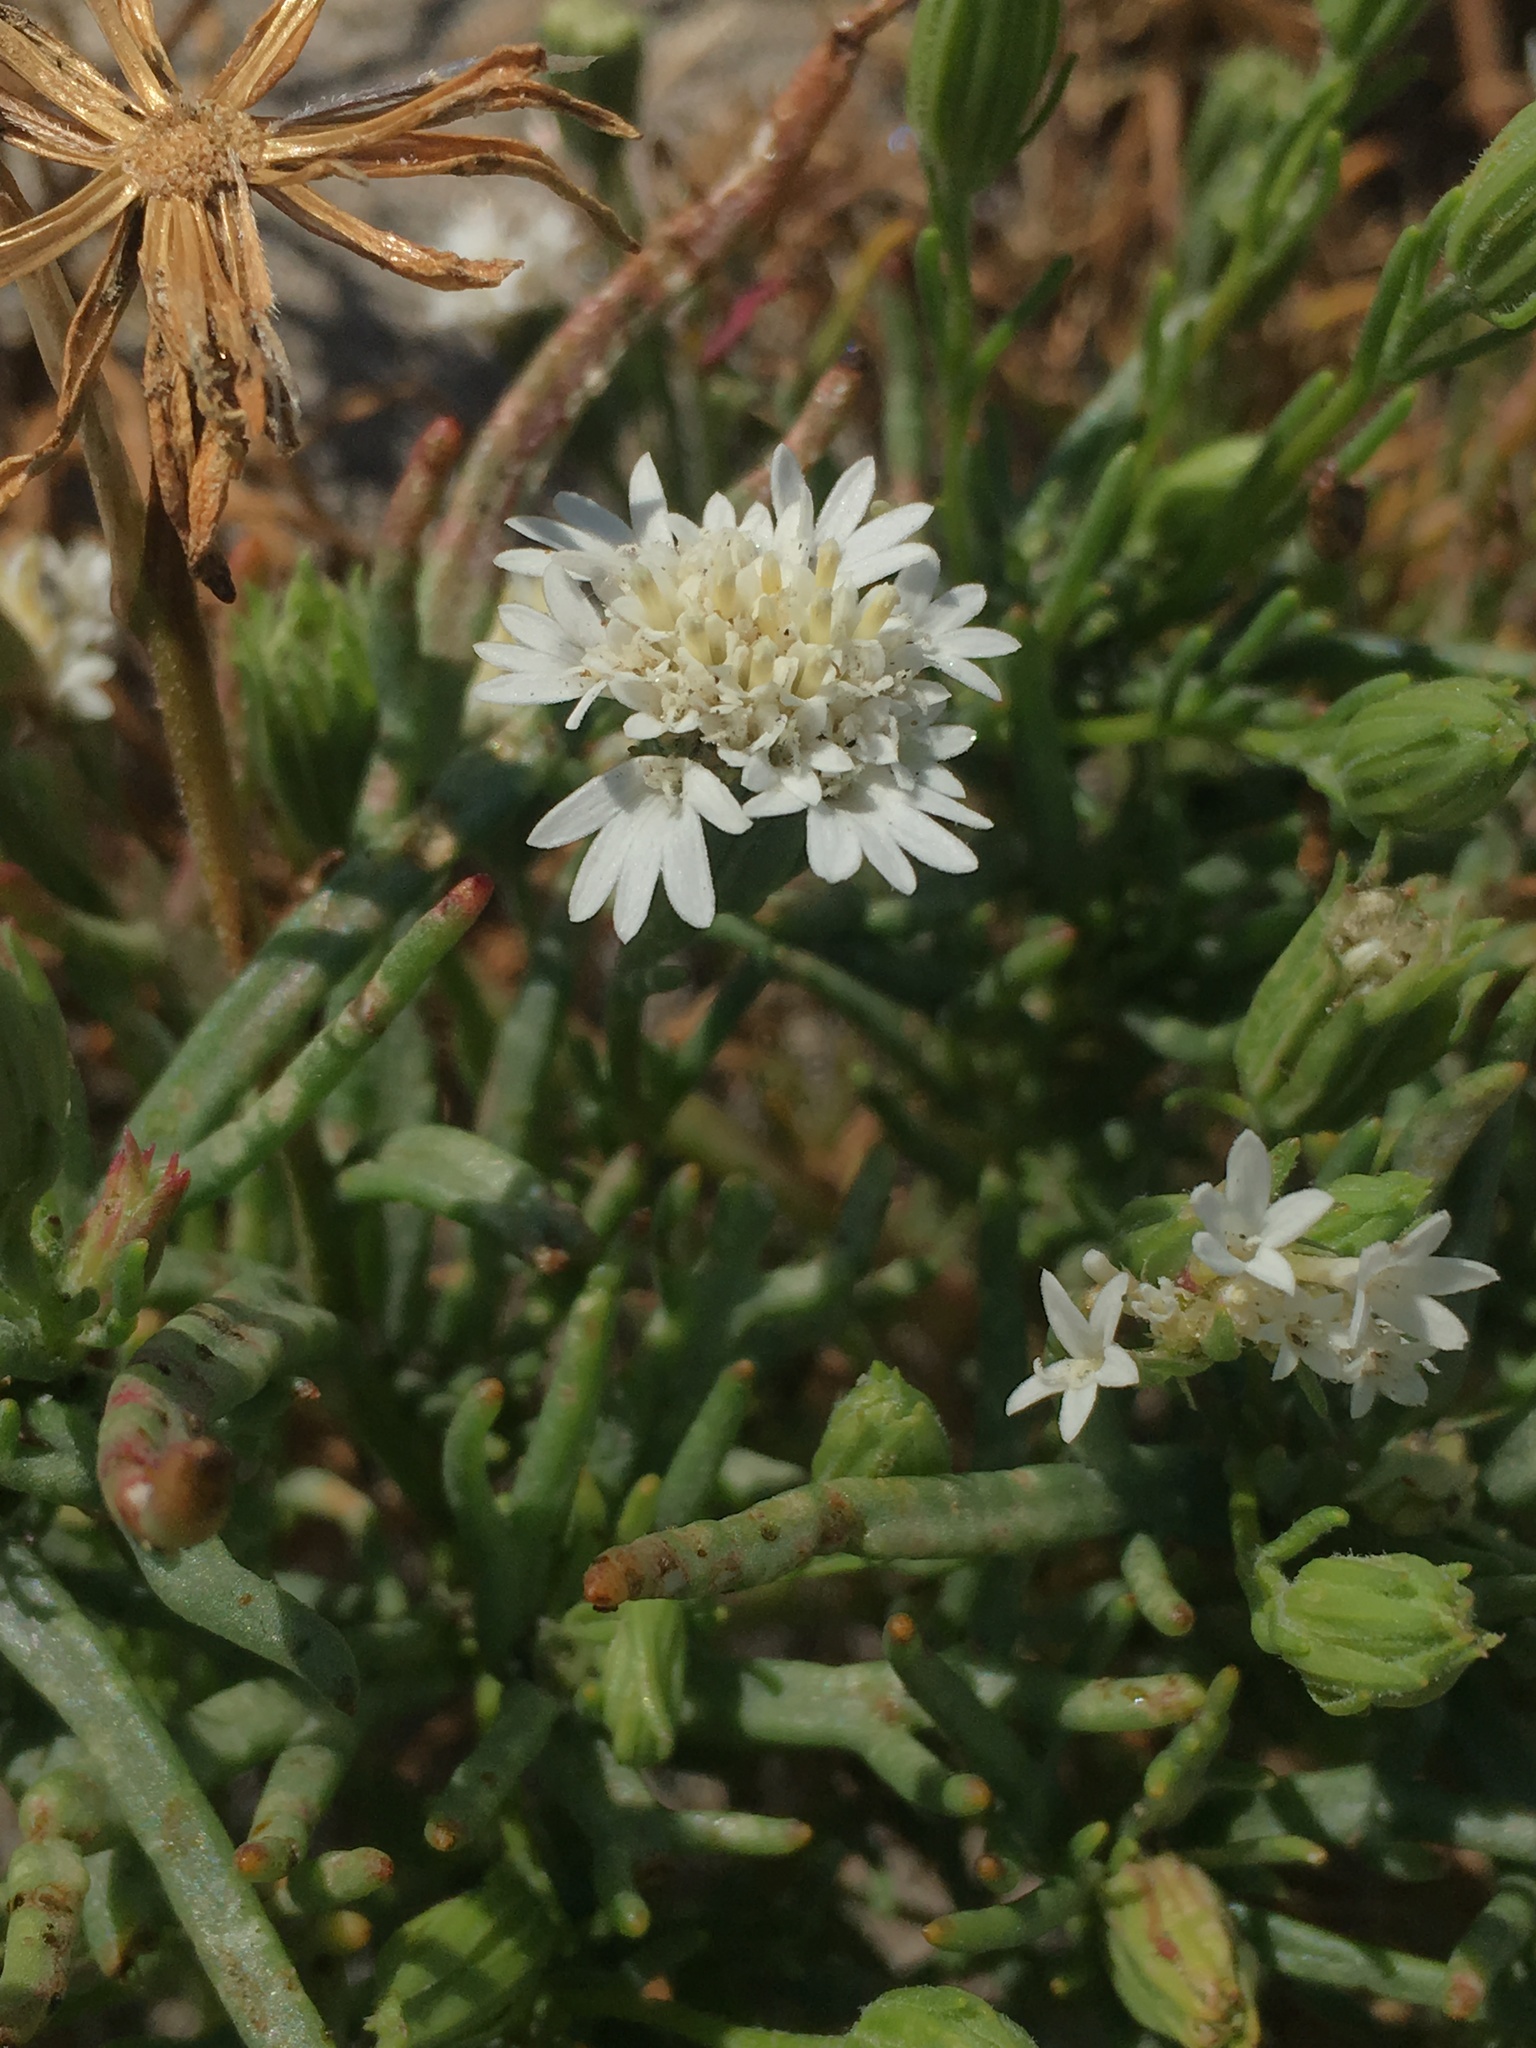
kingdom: Plantae
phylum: Tracheophyta
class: Magnoliopsida
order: Asterales
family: Asteraceae
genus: Chaenactis
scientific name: Chaenactis fremontii
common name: Fremont pincushion
